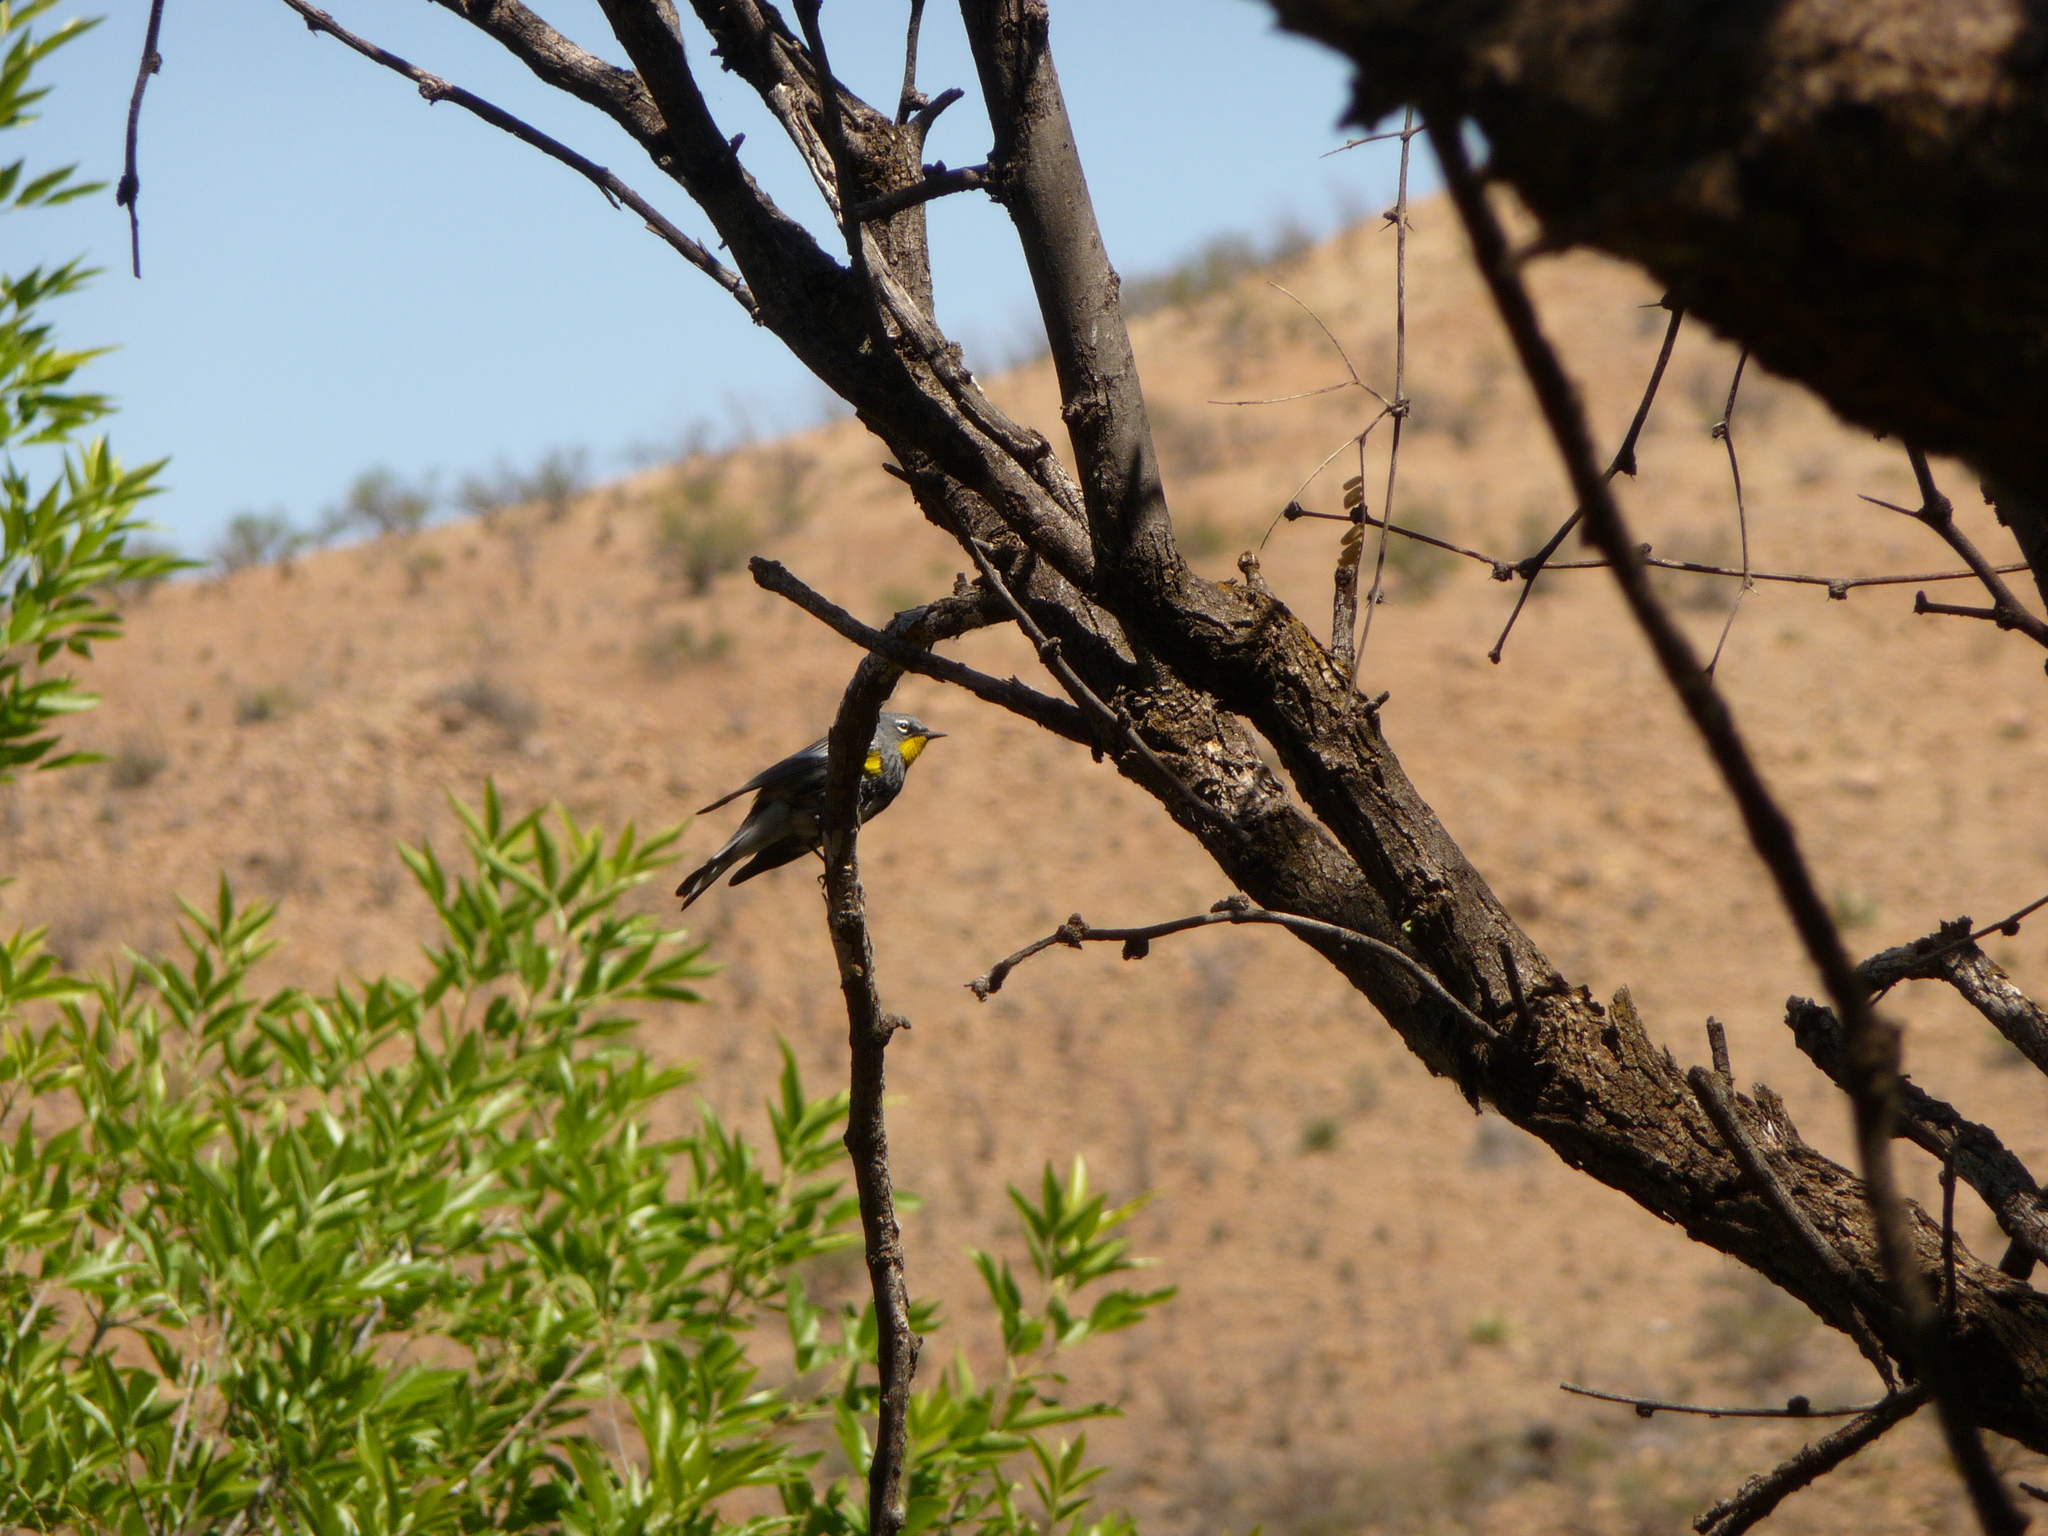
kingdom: Animalia
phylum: Chordata
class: Aves
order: Passeriformes
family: Parulidae
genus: Setophaga
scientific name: Setophaga coronata
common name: Myrtle warbler
